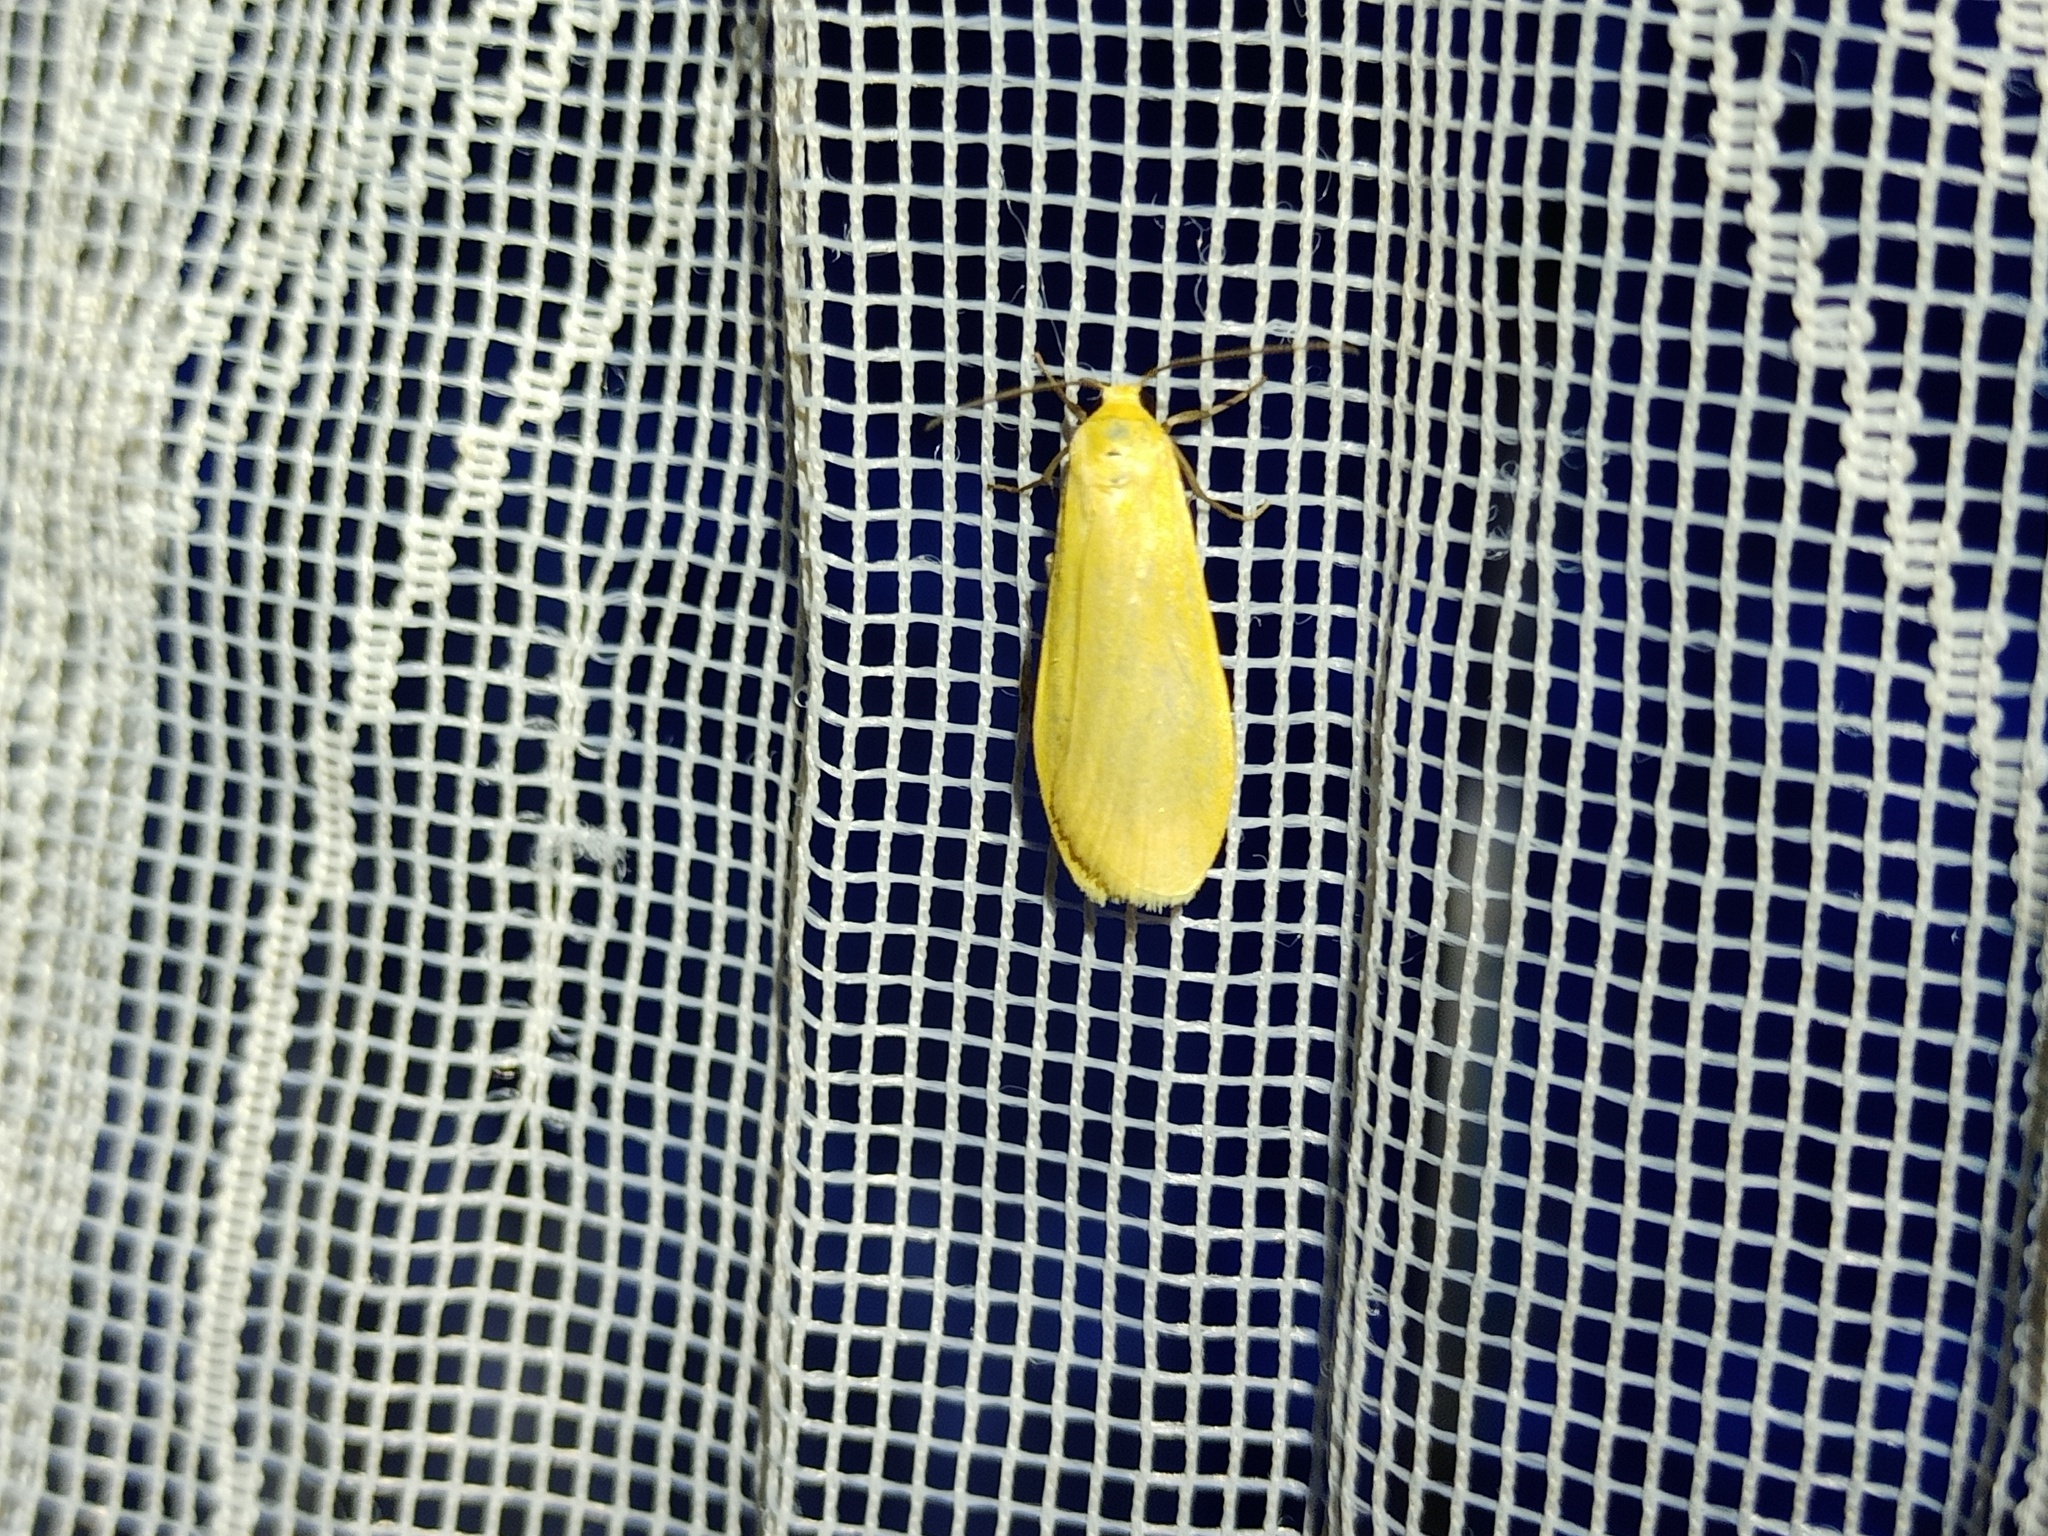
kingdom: Animalia
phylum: Arthropoda
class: Insecta
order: Lepidoptera
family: Erebidae
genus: Wittia
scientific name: Wittia sororcula
